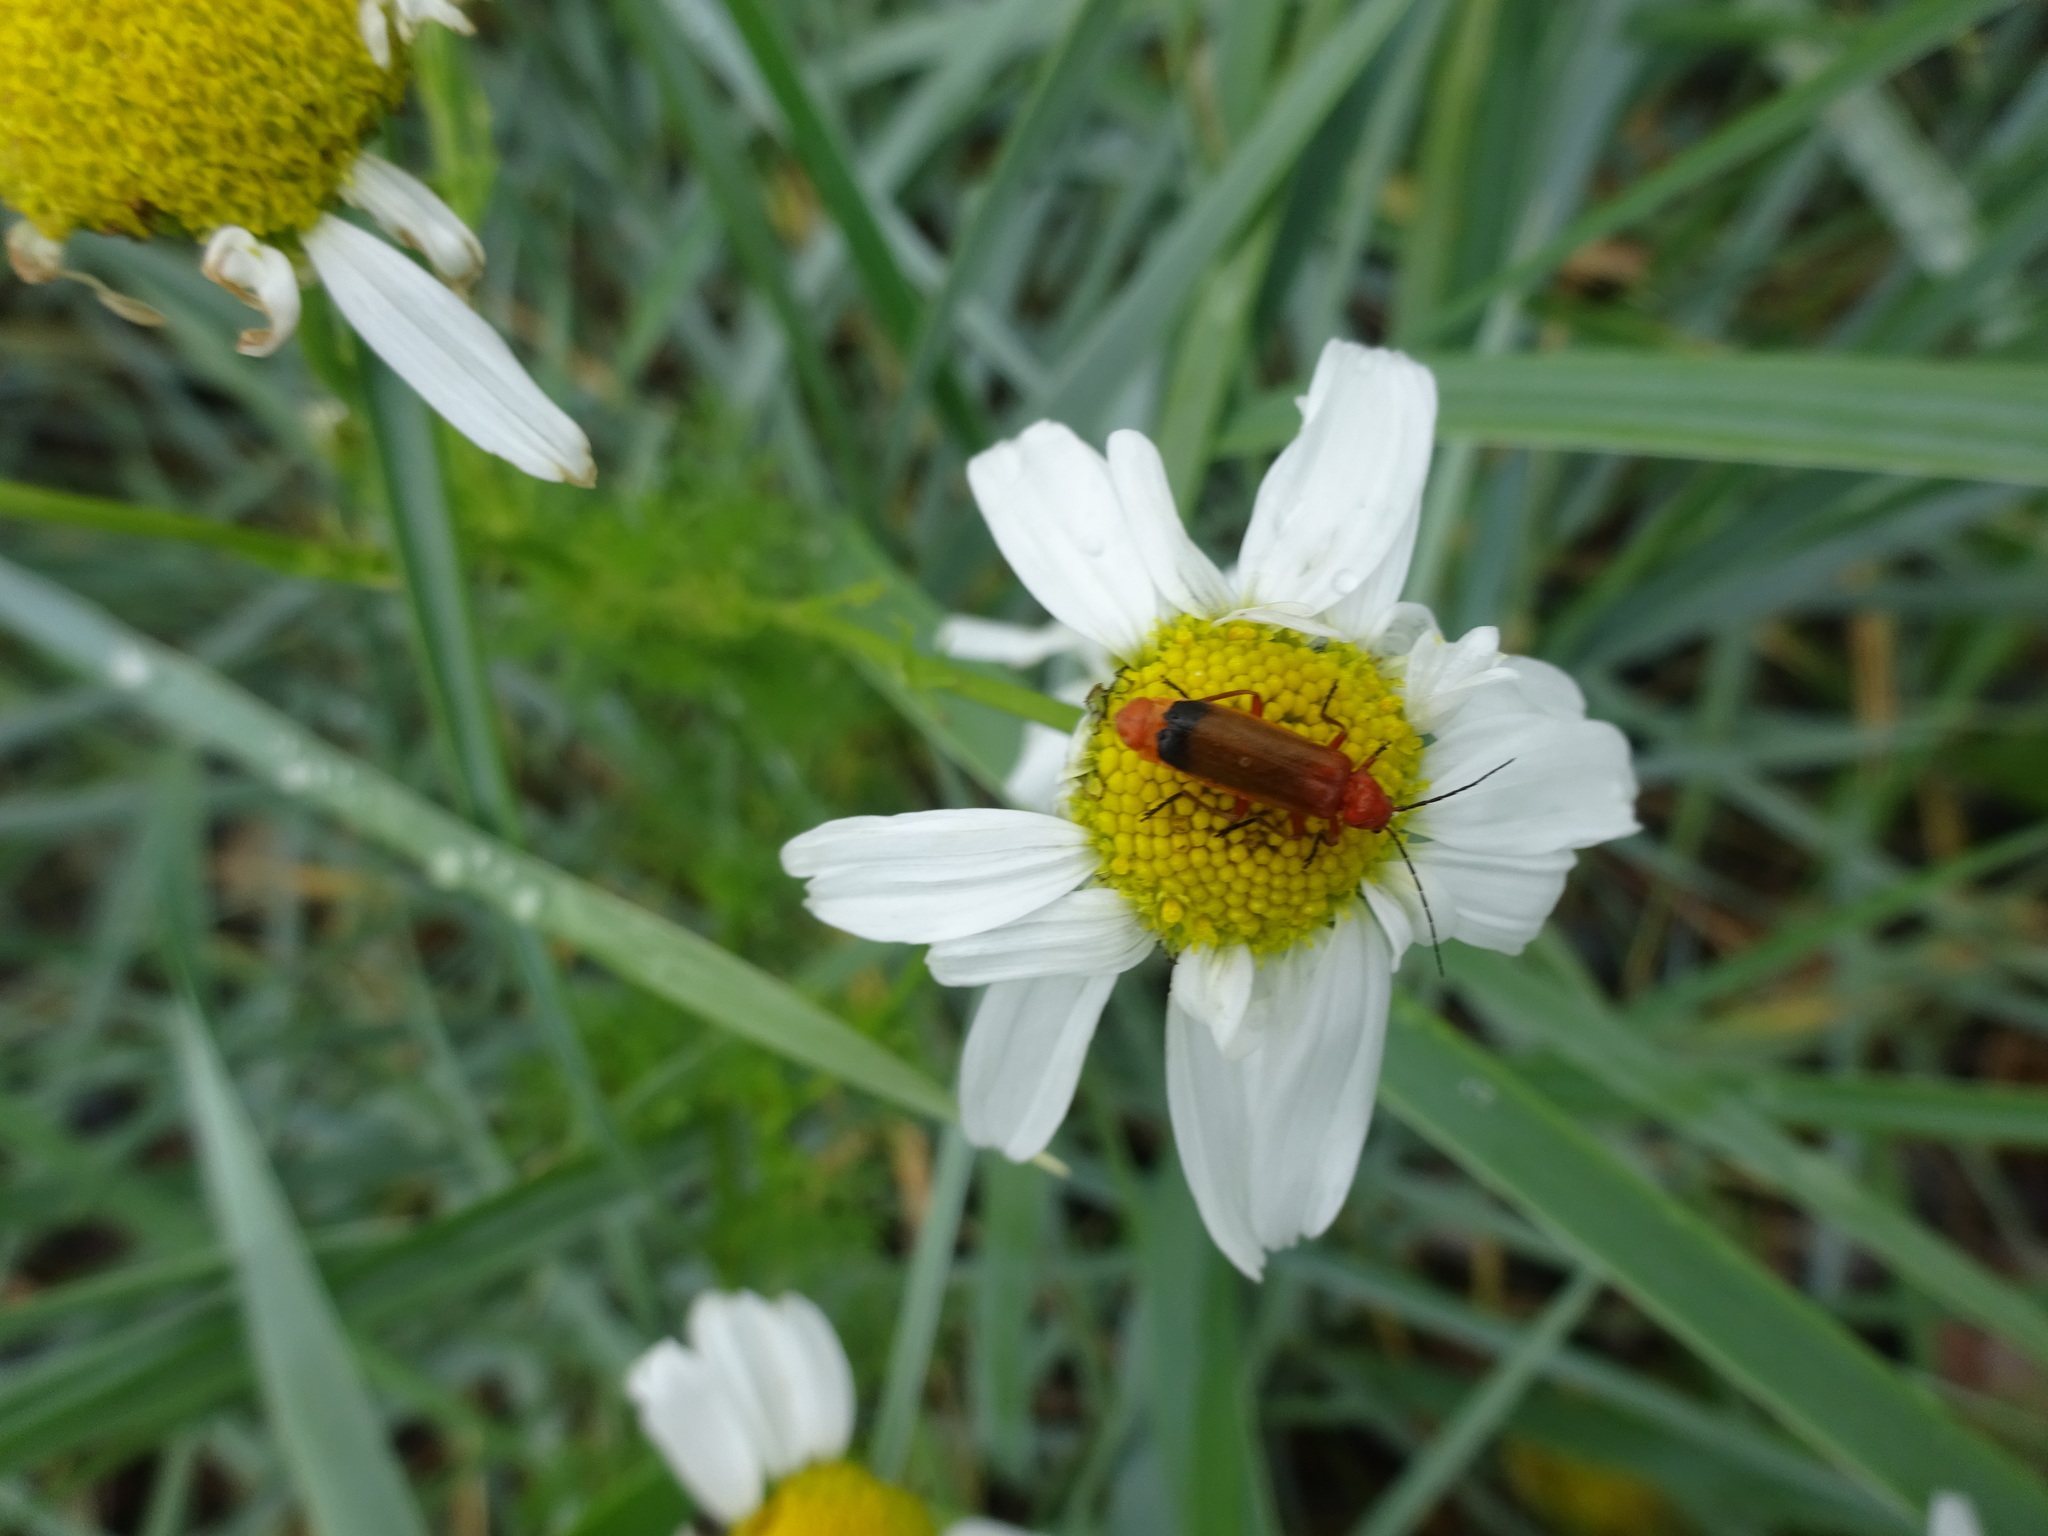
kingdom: Animalia
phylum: Arthropoda
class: Insecta
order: Coleoptera
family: Cantharidae
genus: Rhagonycha
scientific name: Rhagonycha fulva
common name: Common red soldier beetle
